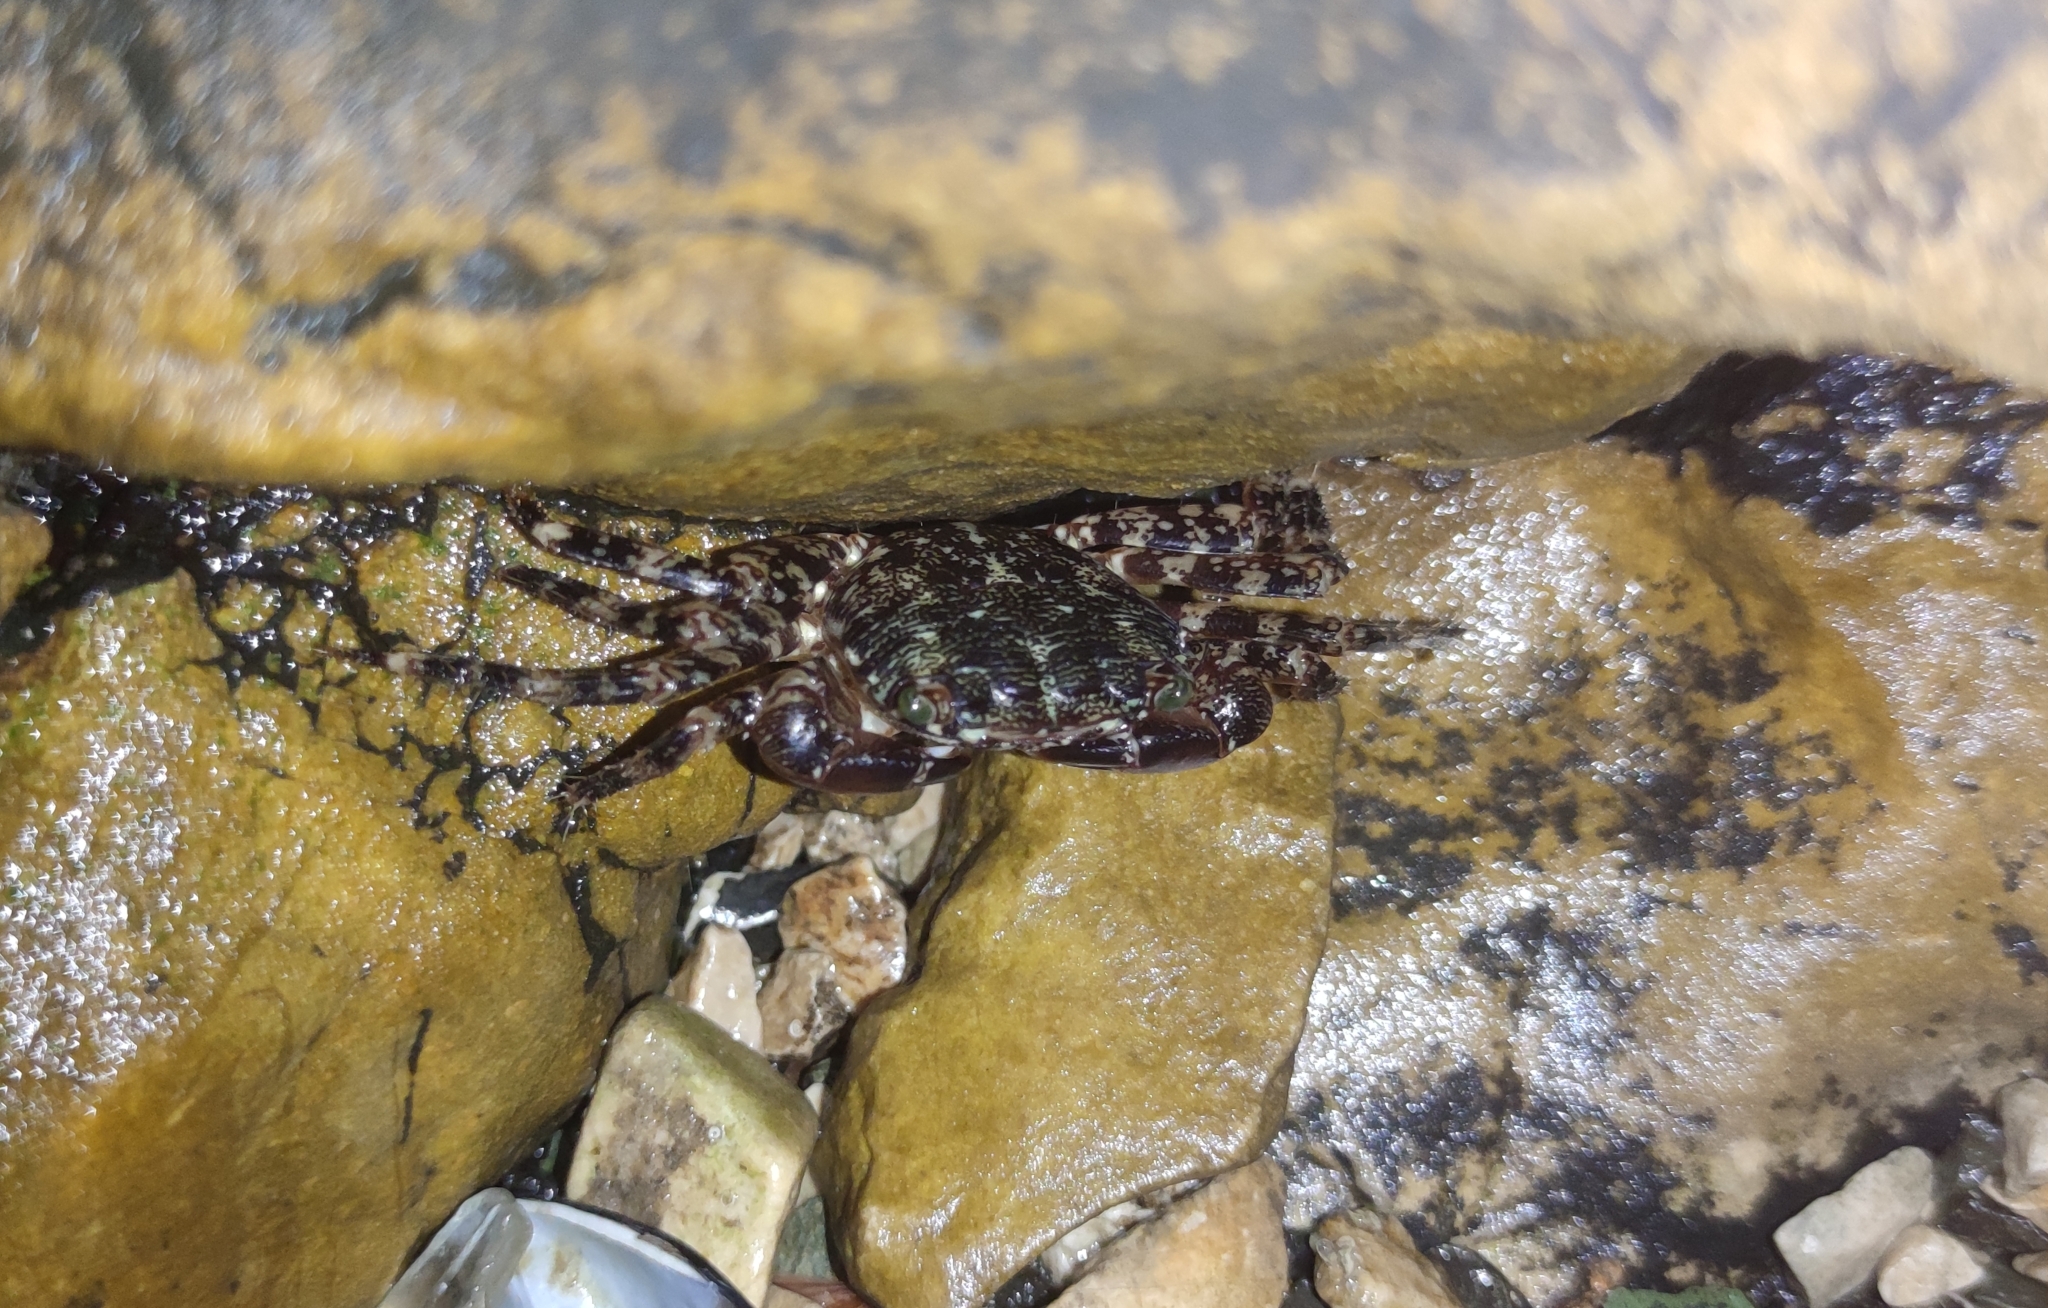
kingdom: Animalia
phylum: Arthropoda
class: Malacostraca
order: Decapoda
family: Grapsidae
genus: Pachygrapsus
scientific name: Pachygrapsus marmoratus
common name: Marbled rock crab
